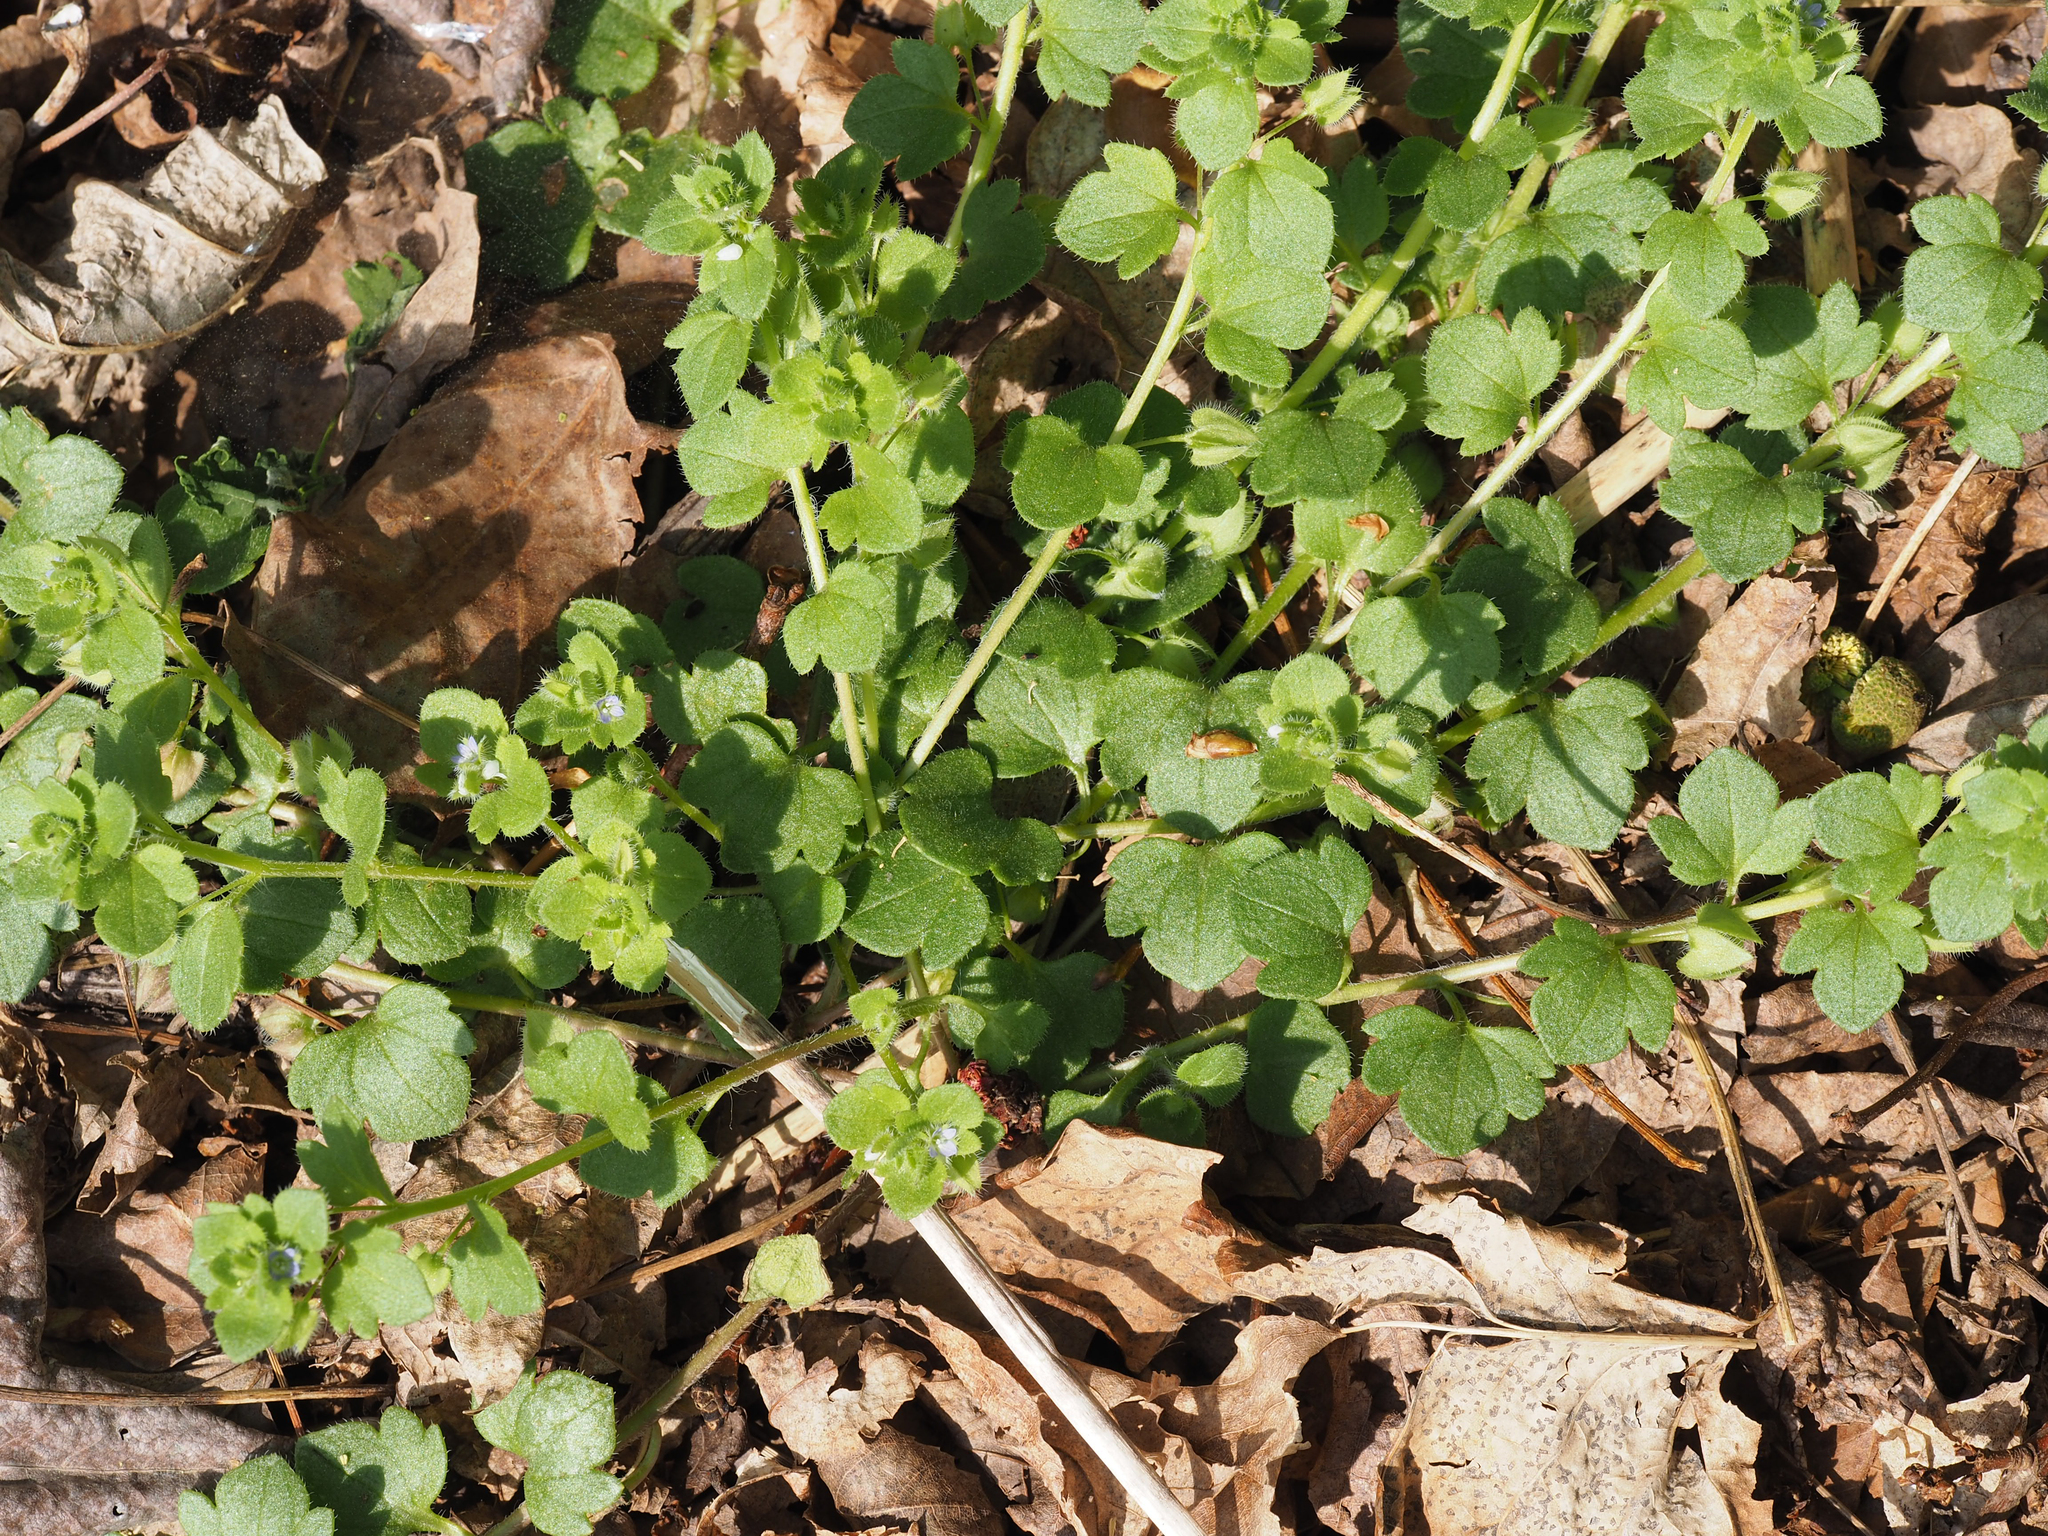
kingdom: Plantae
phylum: Tracheophyta
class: Magnoliopsida
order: Lamiales
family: Plantaginaceae
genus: Veronica
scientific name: Veronica hederifolia
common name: Ivy-leaved speedwell
